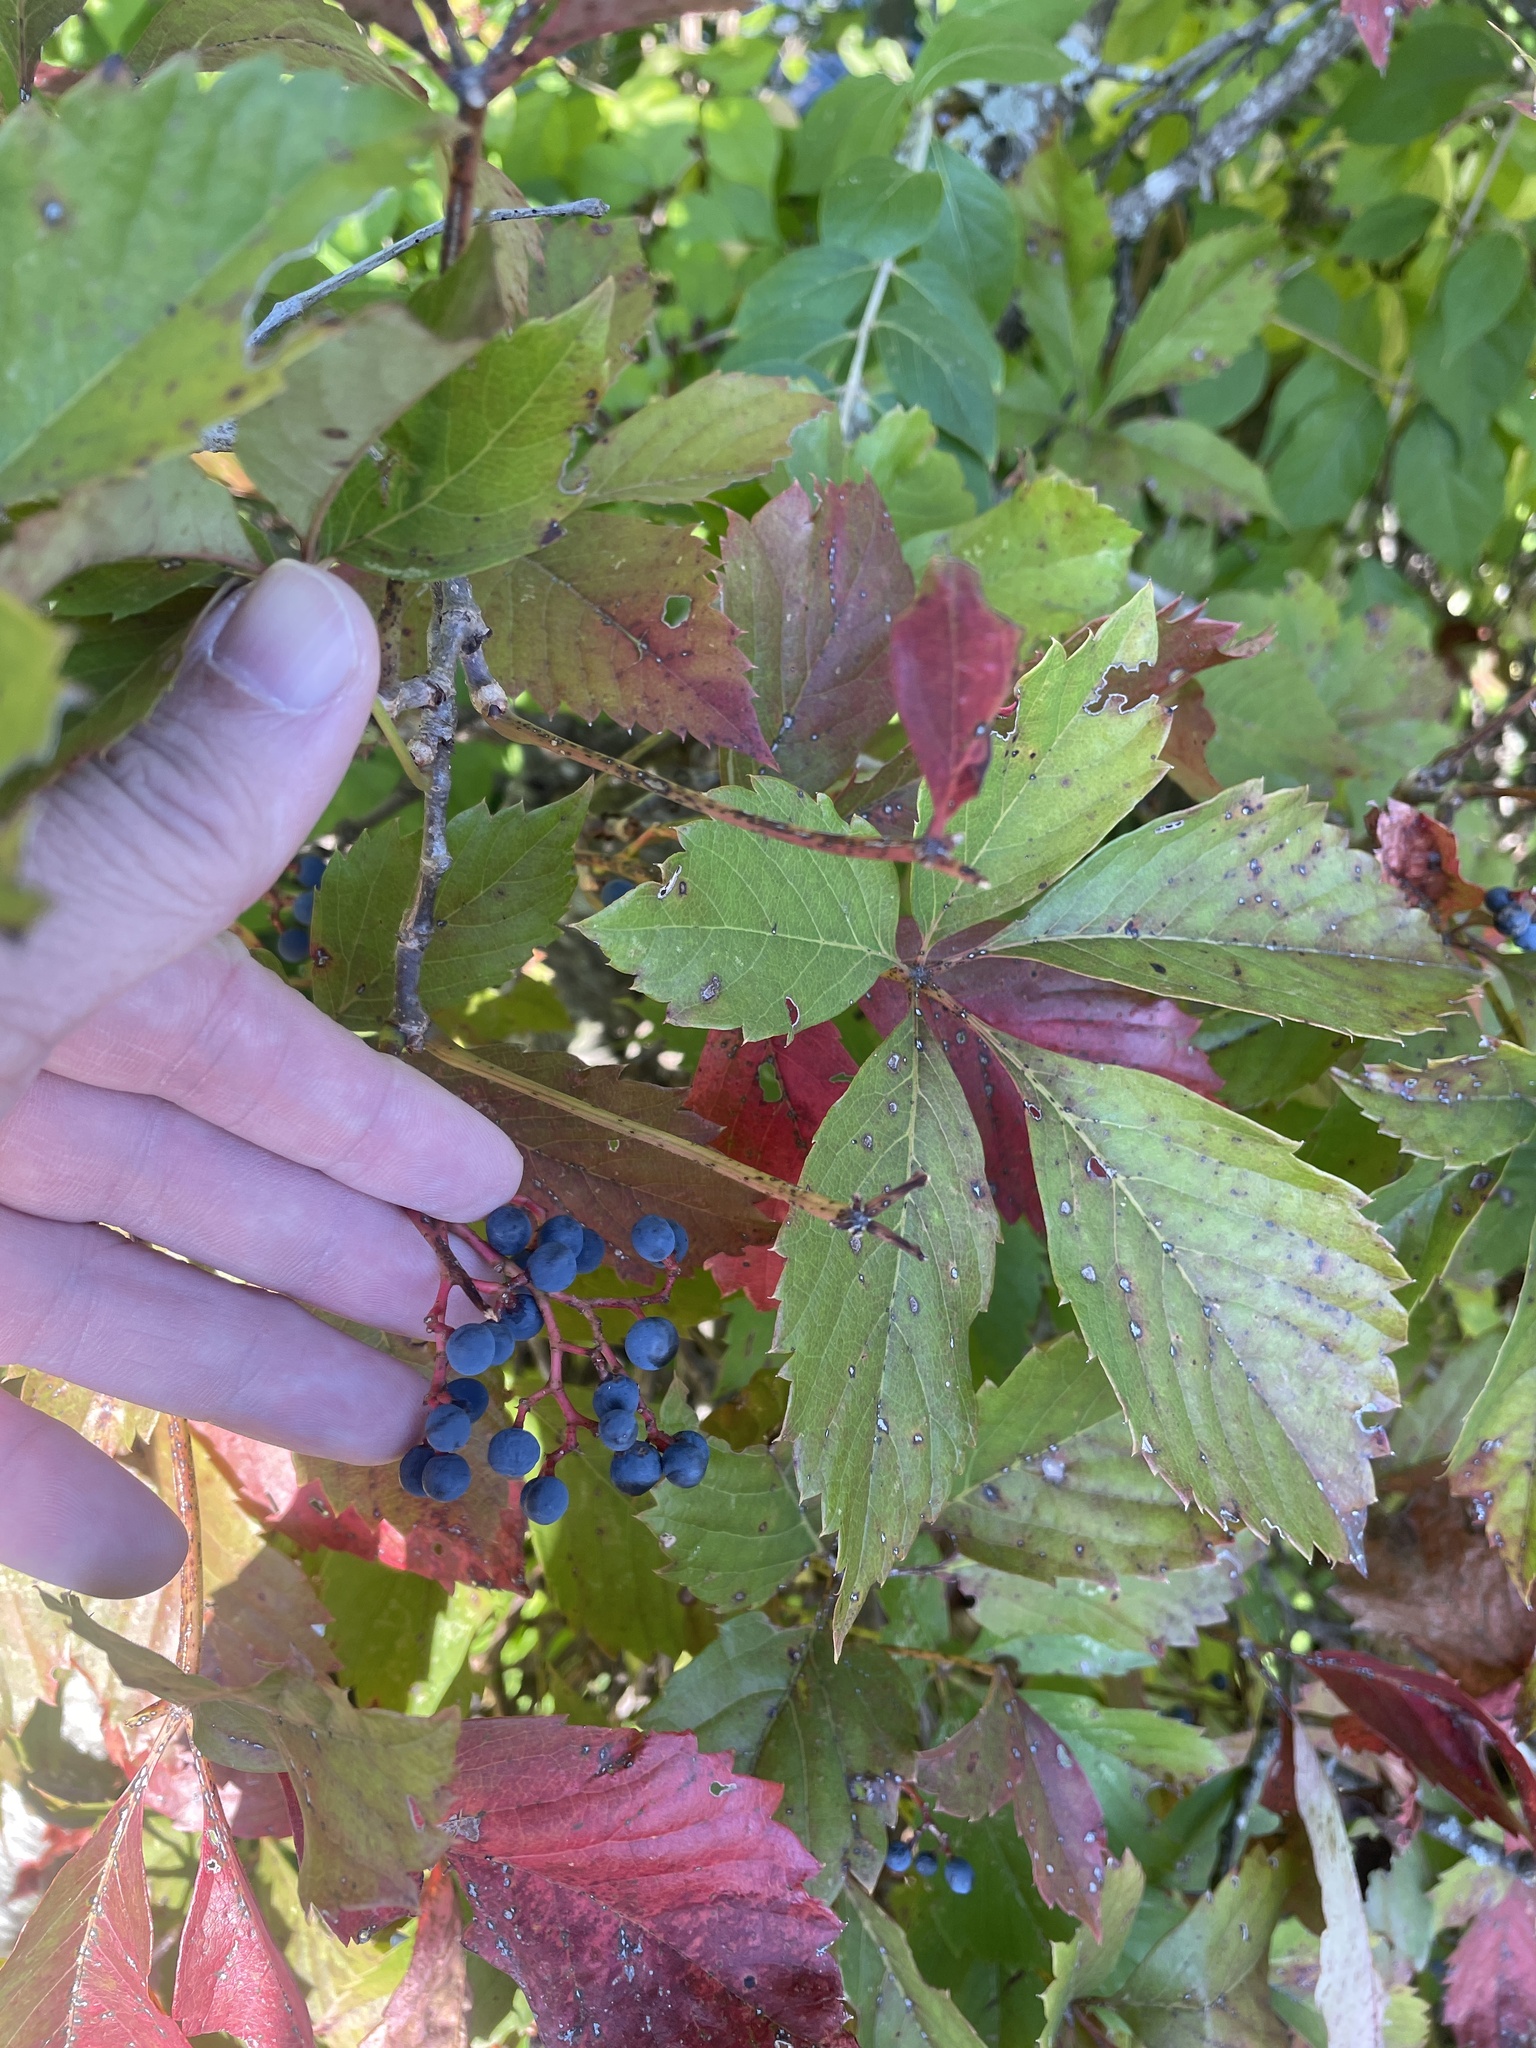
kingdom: Plantae
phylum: Tracheophyta
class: Magnoliopsida
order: Vitales
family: Vitaceae
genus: Parthenocissus
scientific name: Parthenocissus quinquefolia
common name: Virginia-creeper
